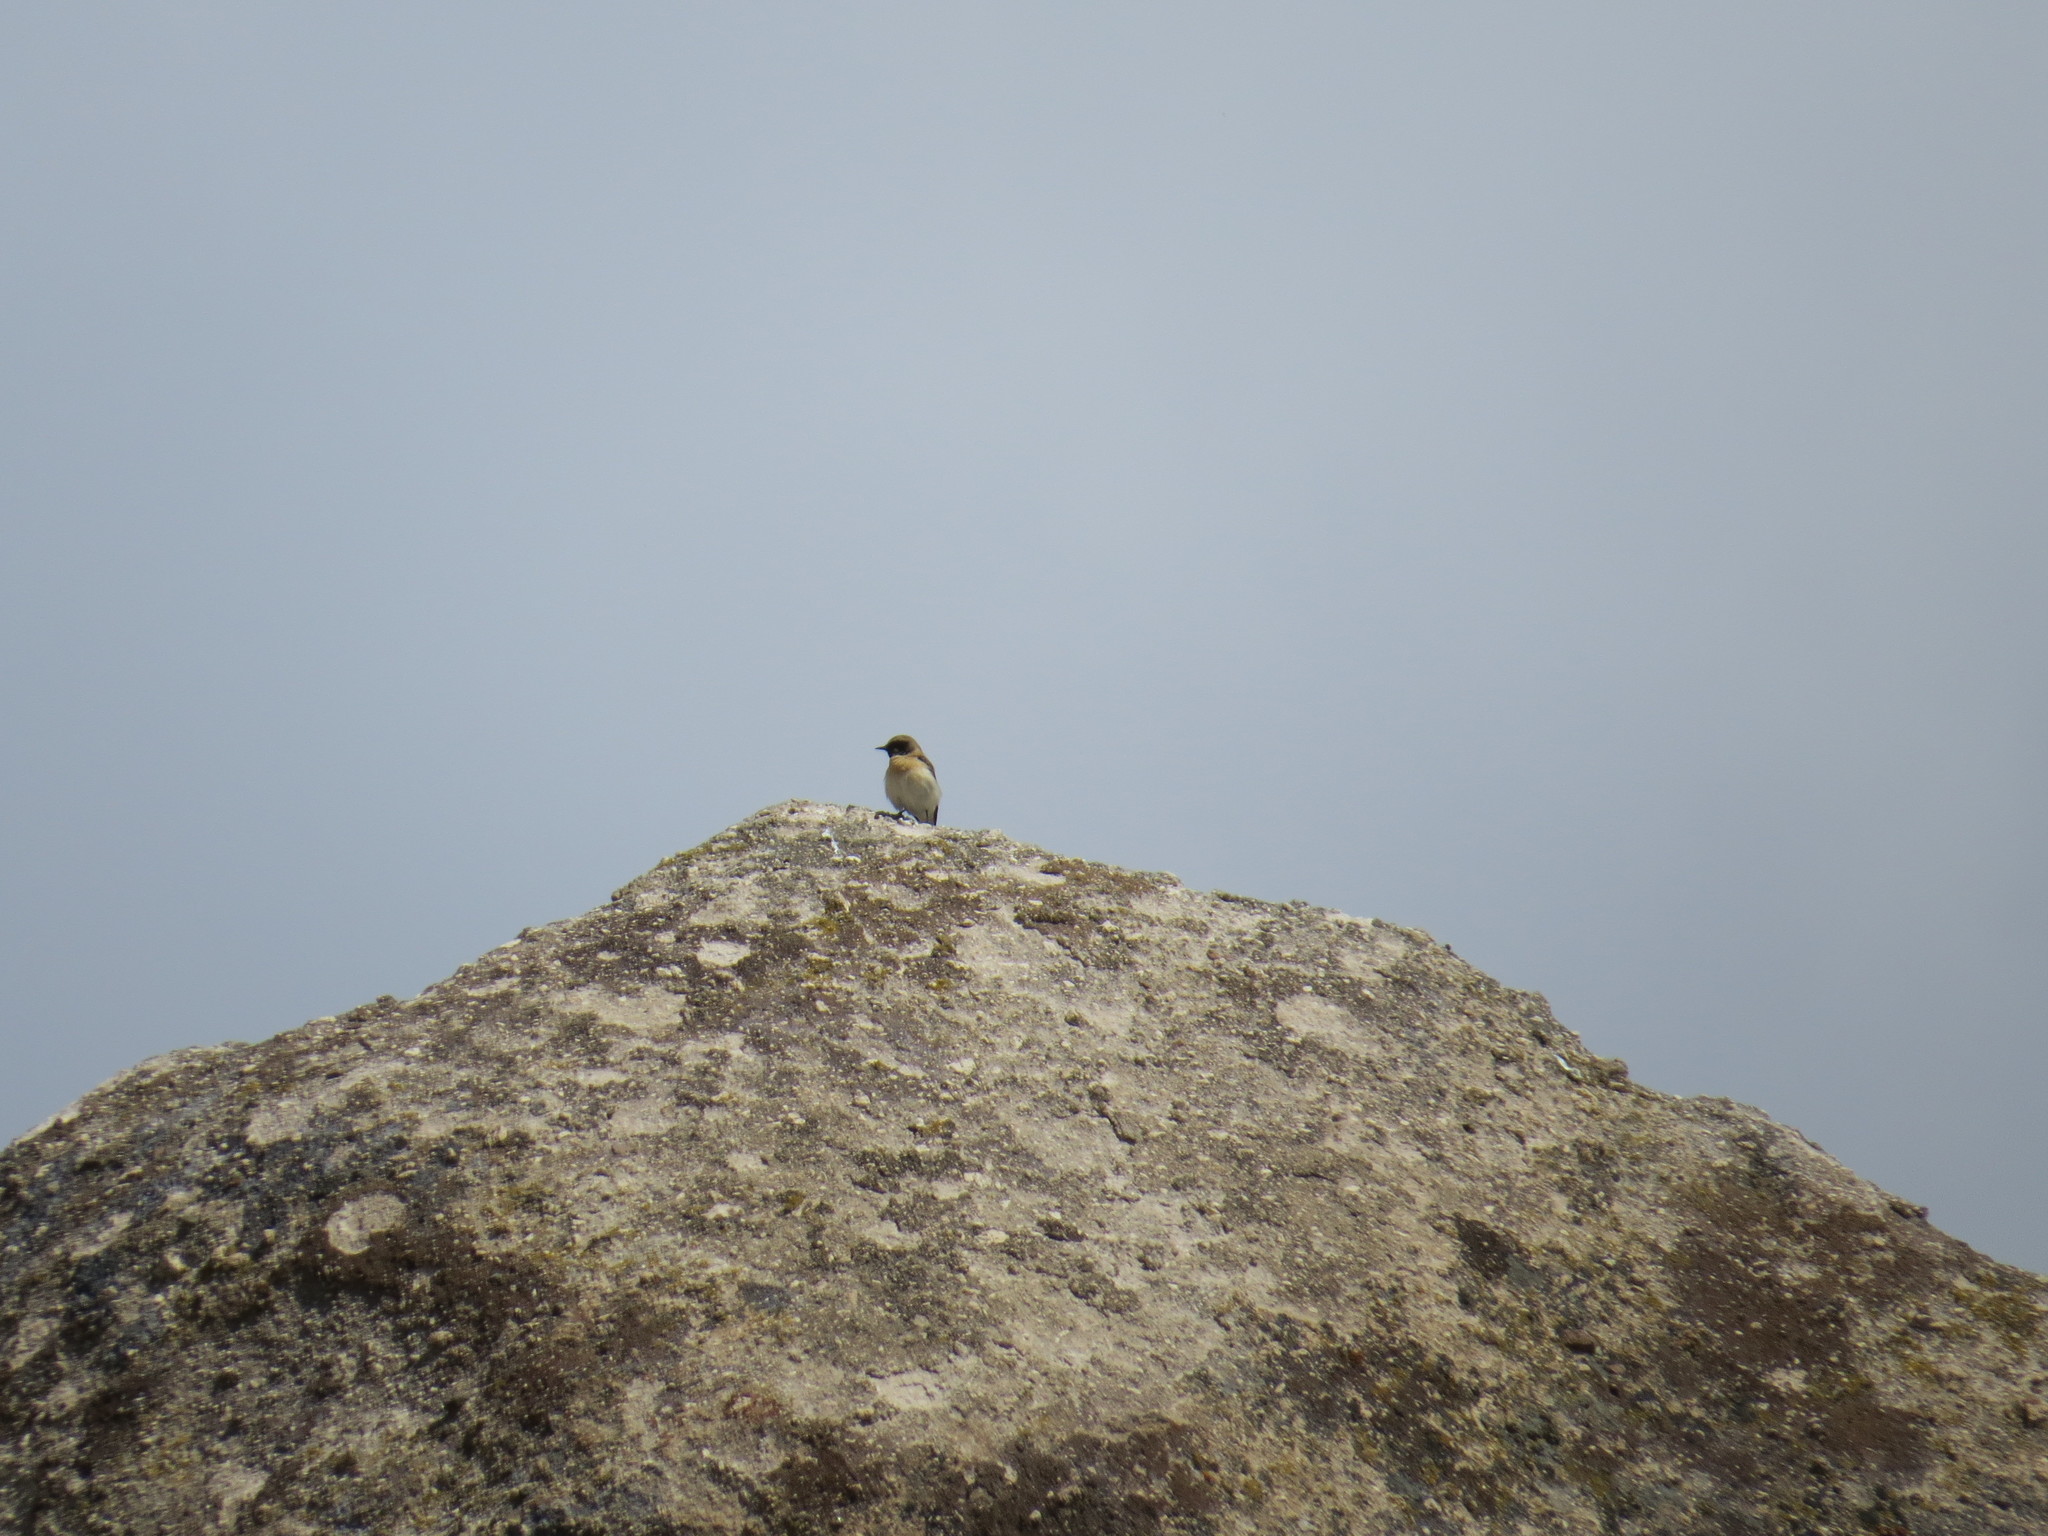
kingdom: Animalia
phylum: Chordata
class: Aves
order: Passeriformes
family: Muscicapidae
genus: Oenanthe
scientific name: Oenanthe hispanica
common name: Black-eared wheatear
